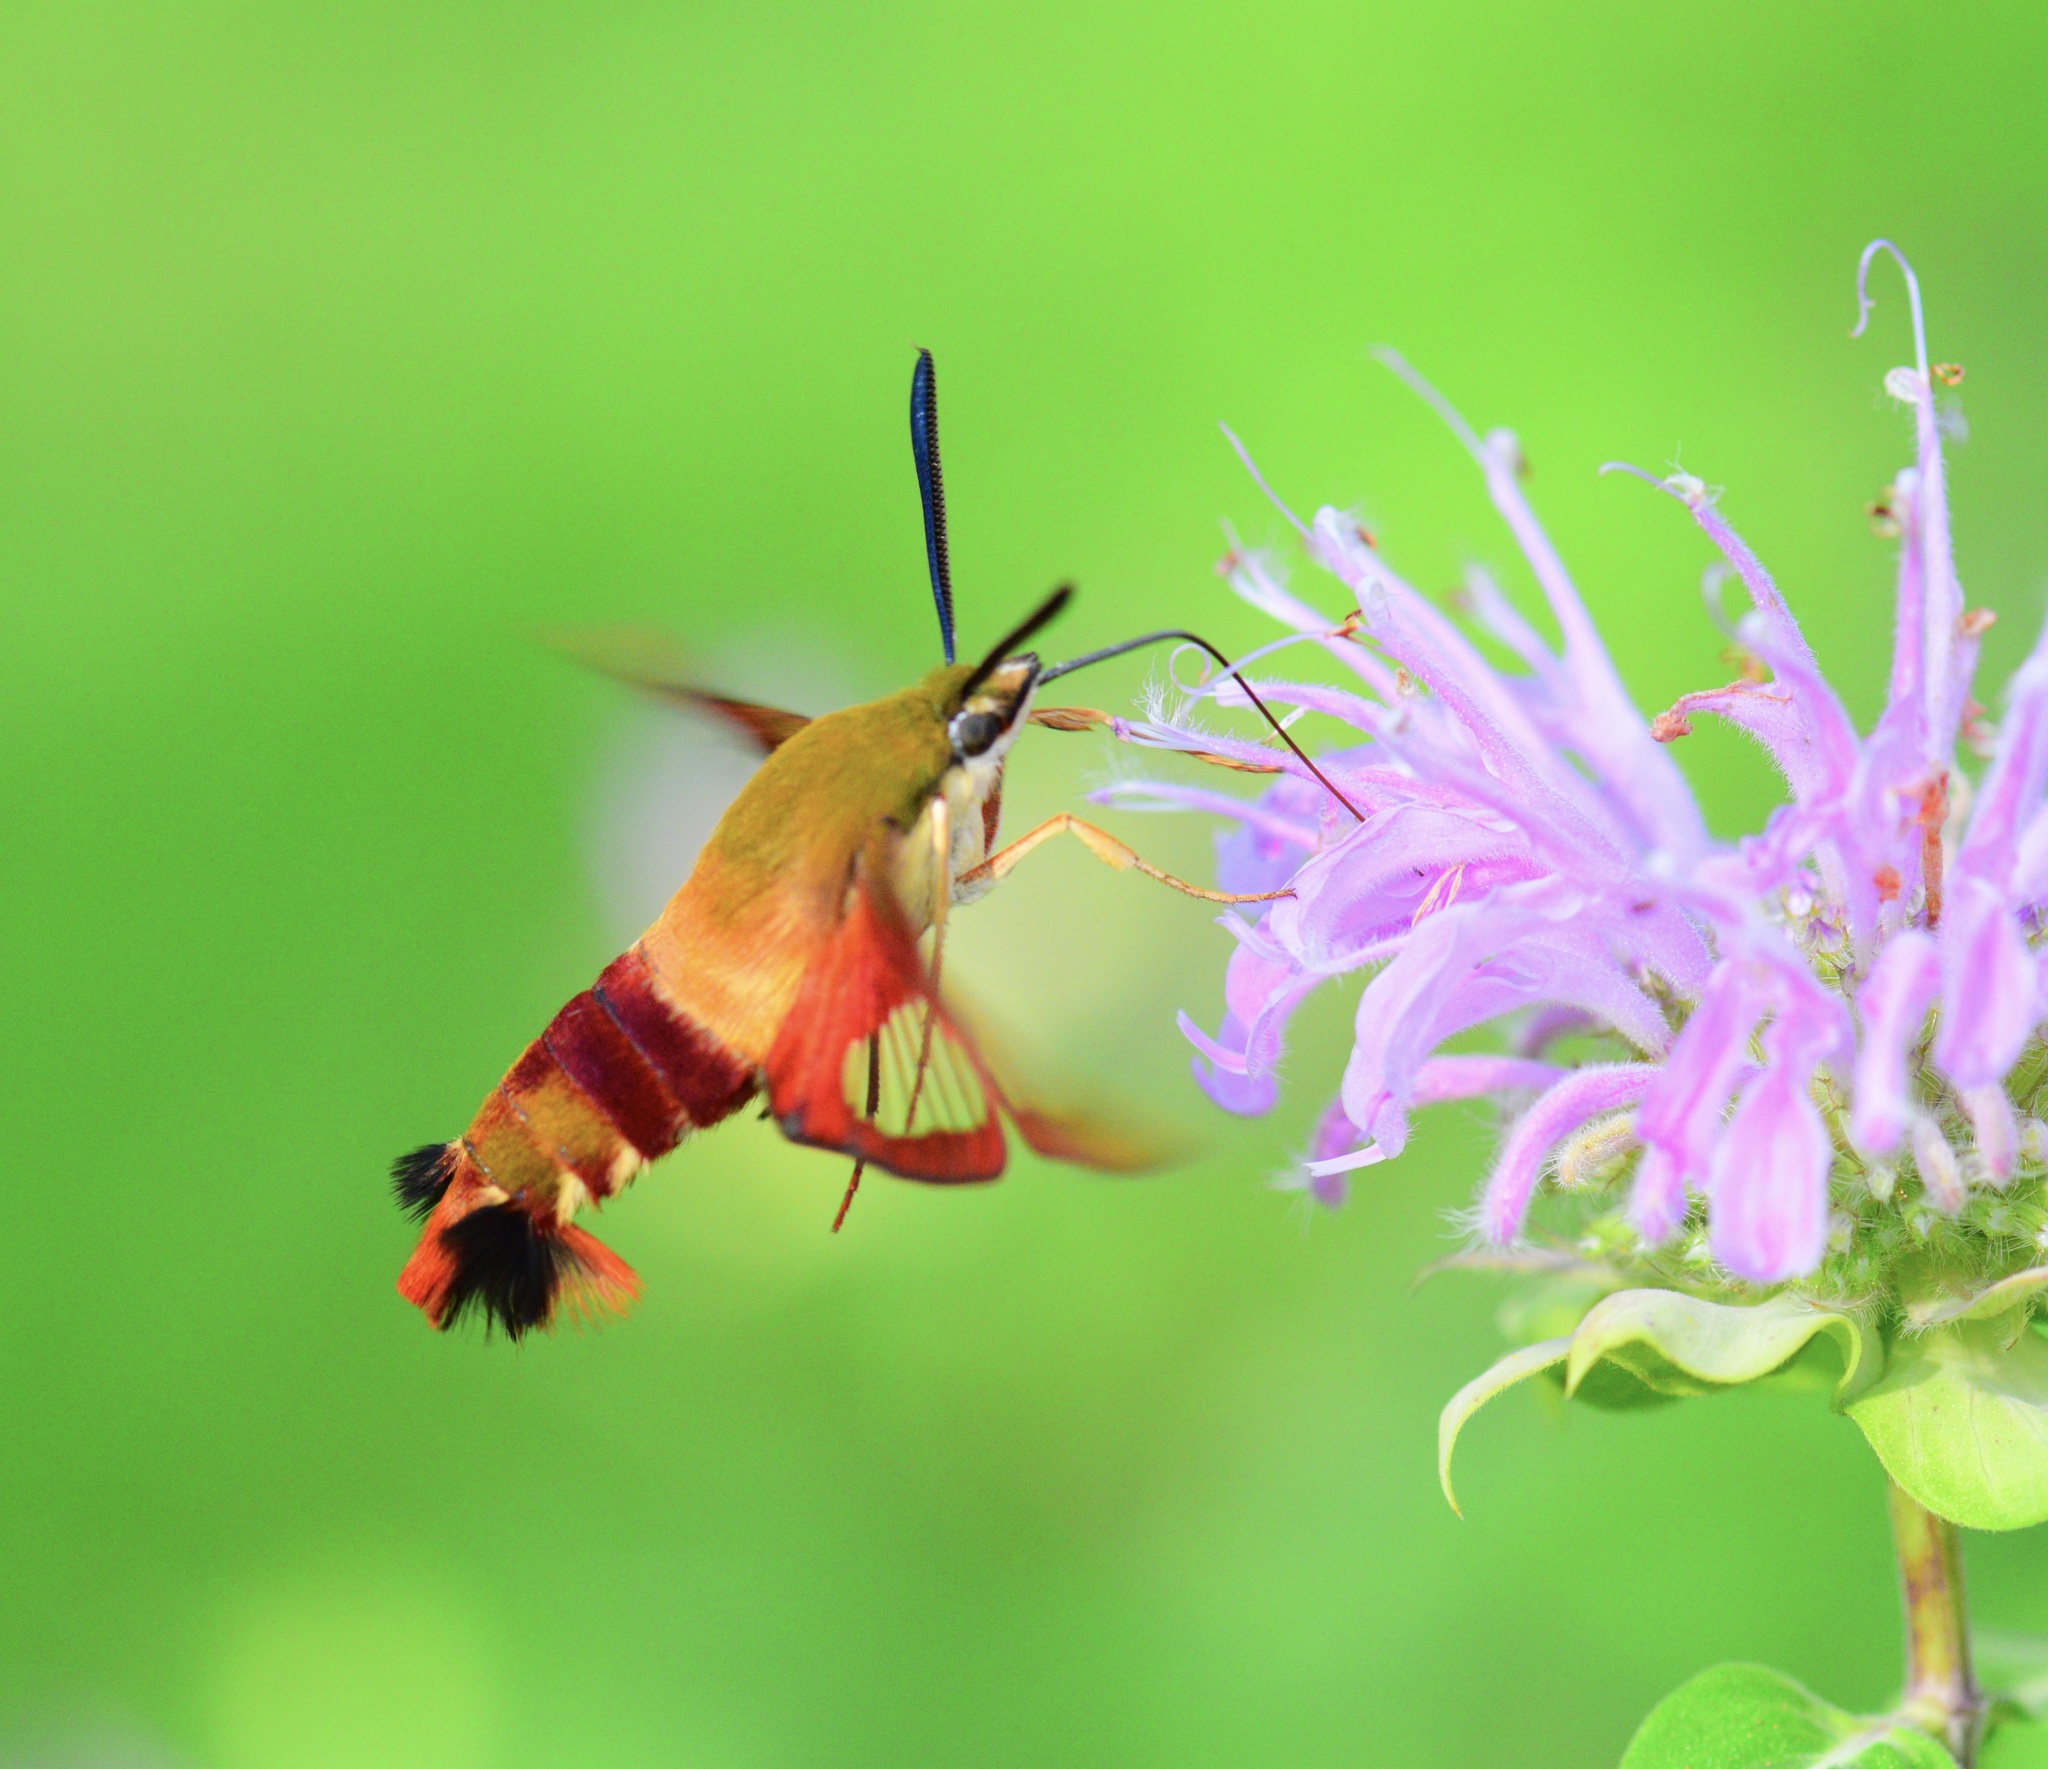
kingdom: Animalia
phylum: Arthropoda
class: Insecta
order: Lepidoptera
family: Sphingidae
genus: Hemaris
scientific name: Hemaris thysbe
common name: Common clear-wing
